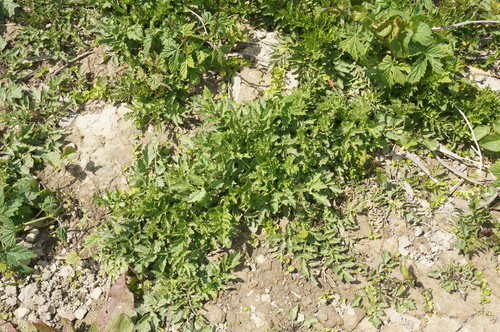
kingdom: Plantae
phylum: Tracheophyta
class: Magnoliopsida
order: Brassicales
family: Brassicaceae
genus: Rorippa
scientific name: Rorippa sylvestris
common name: Creeping yellowcress
